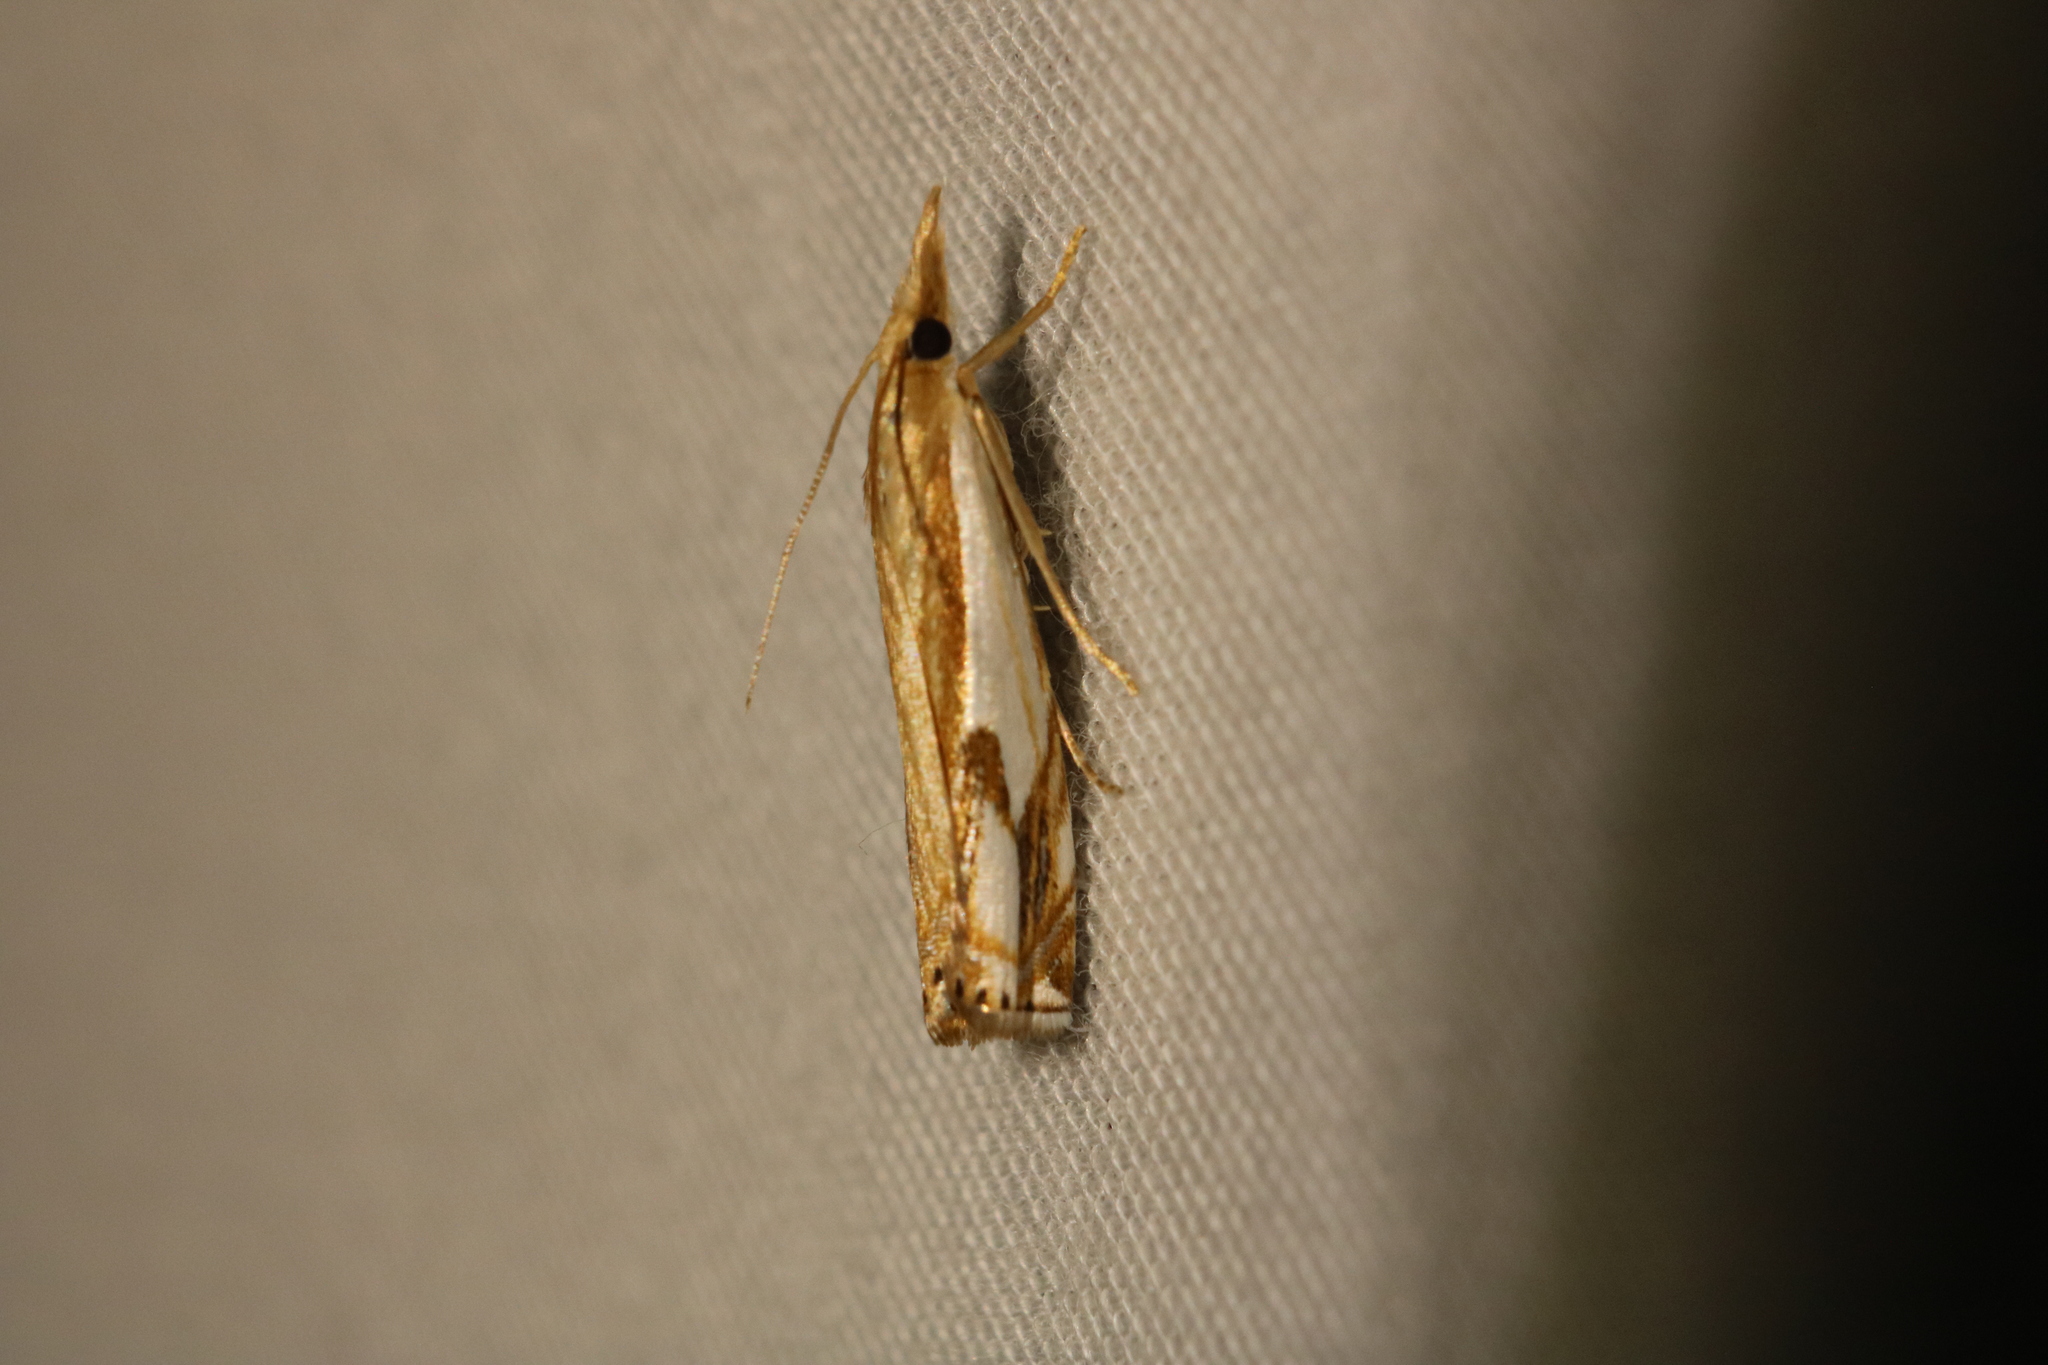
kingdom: Animalia
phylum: Arthropoda
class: Insecta
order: Lepidoptera
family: Crambidae
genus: Crambus
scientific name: Crambus agitatellus
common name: Double-banded grass-veneer
